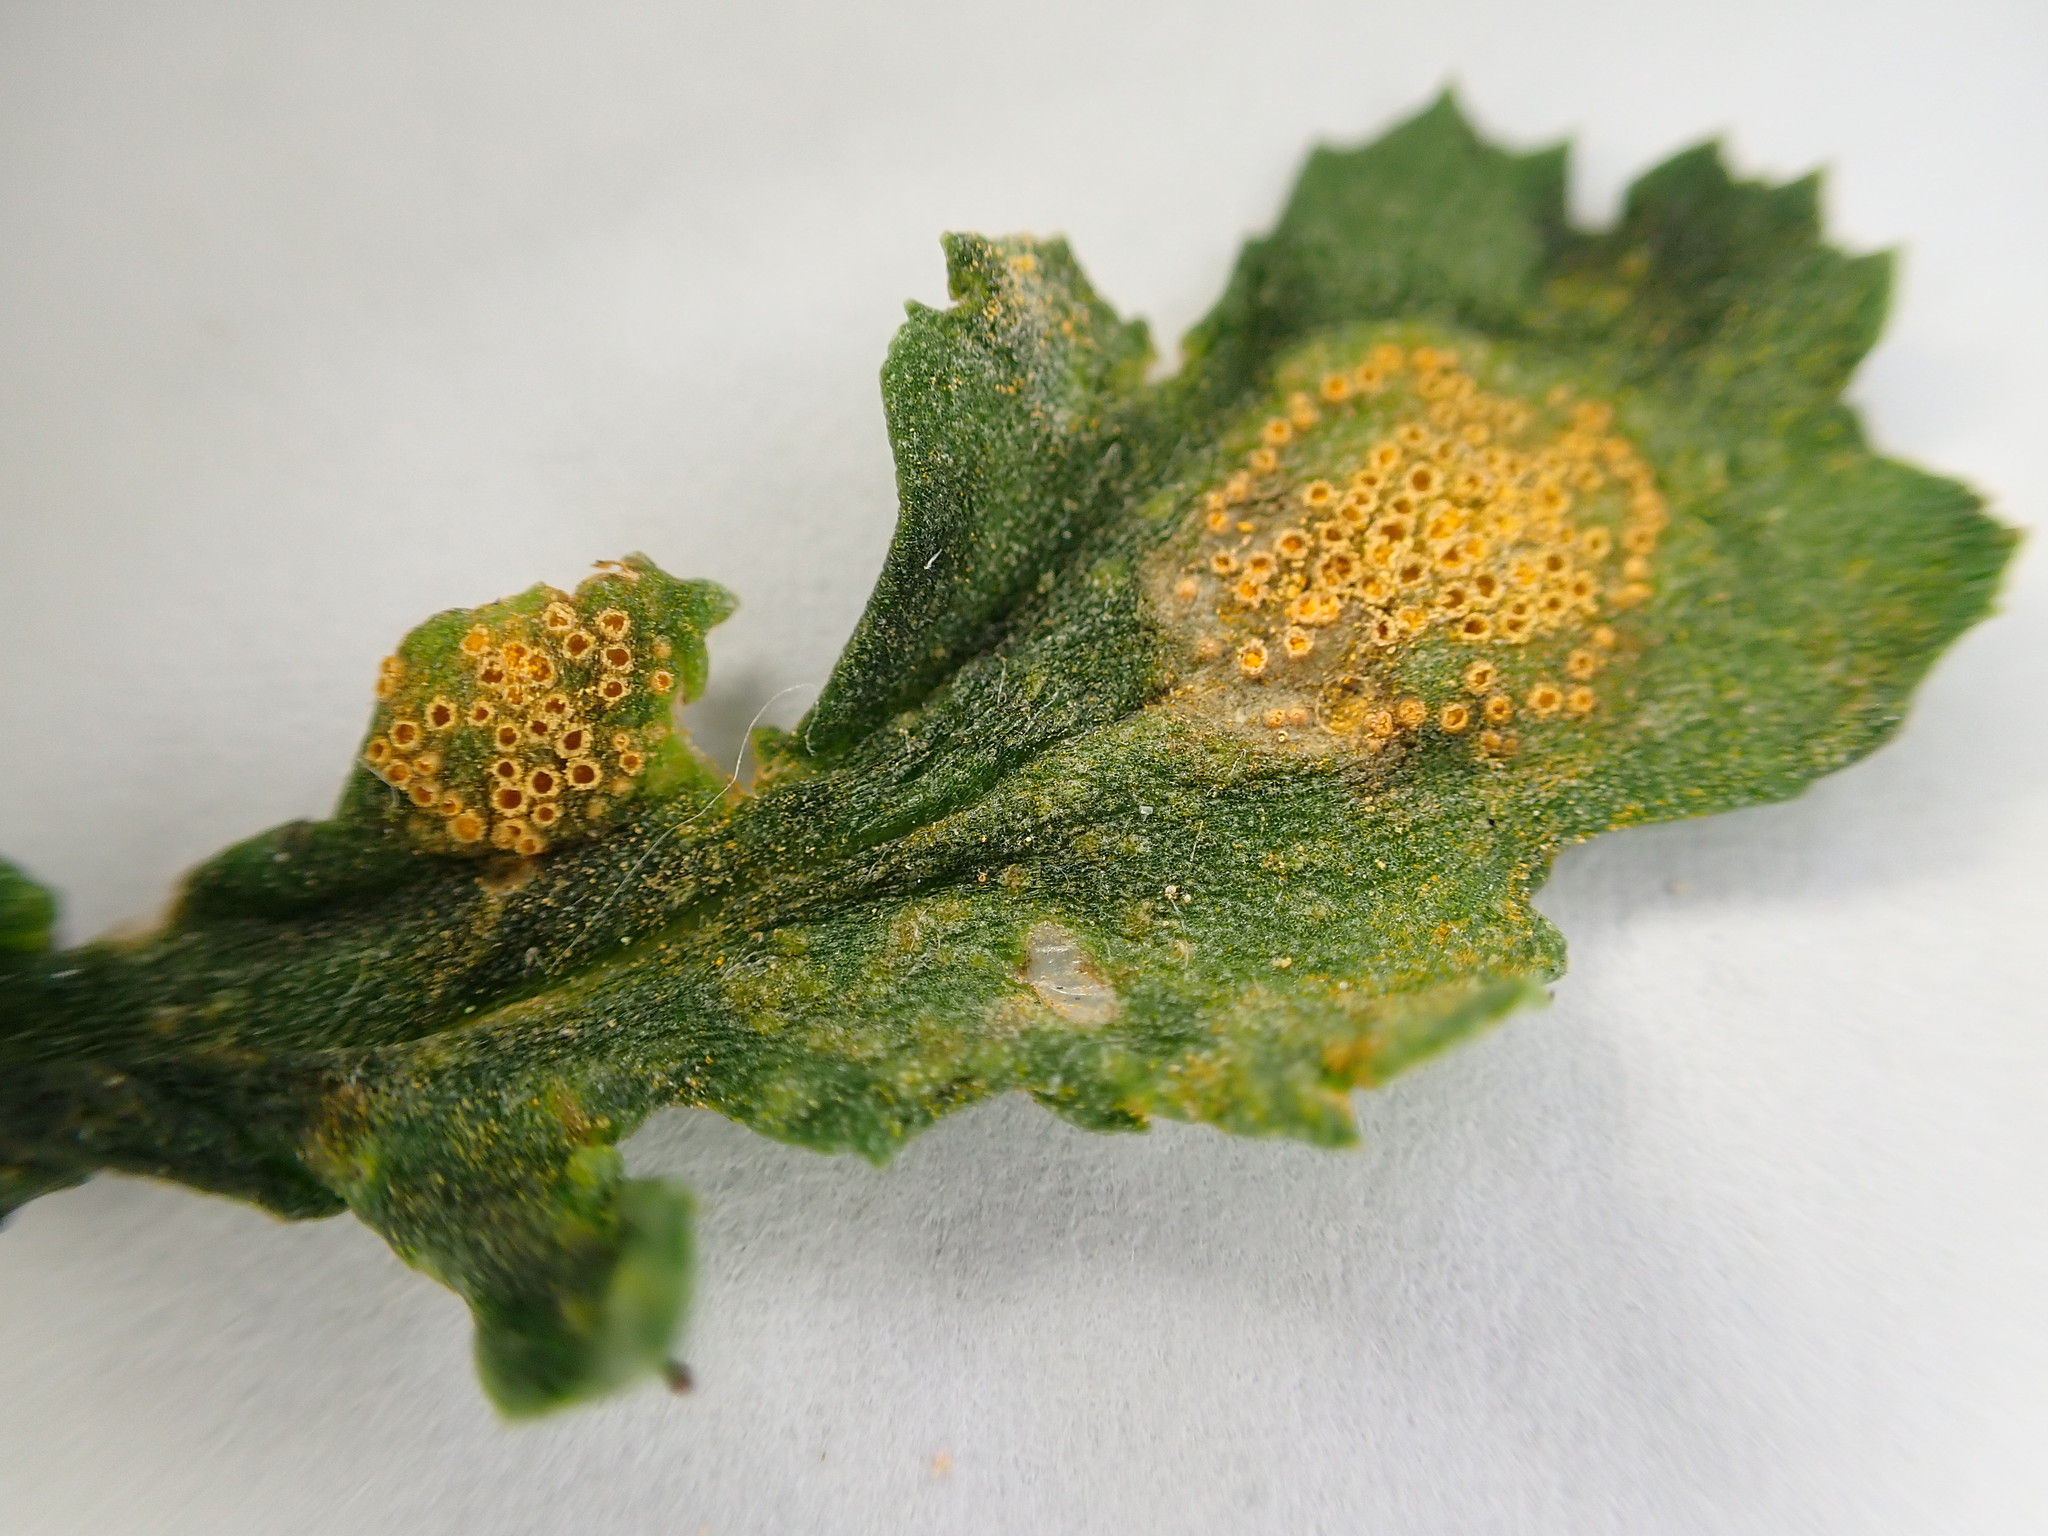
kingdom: Fungi
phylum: Basidiomycota
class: Pucciniomycetes
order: Pucciniales
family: Pucciniaceae
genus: Puccinia
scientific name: Puccinia lagenophorae
